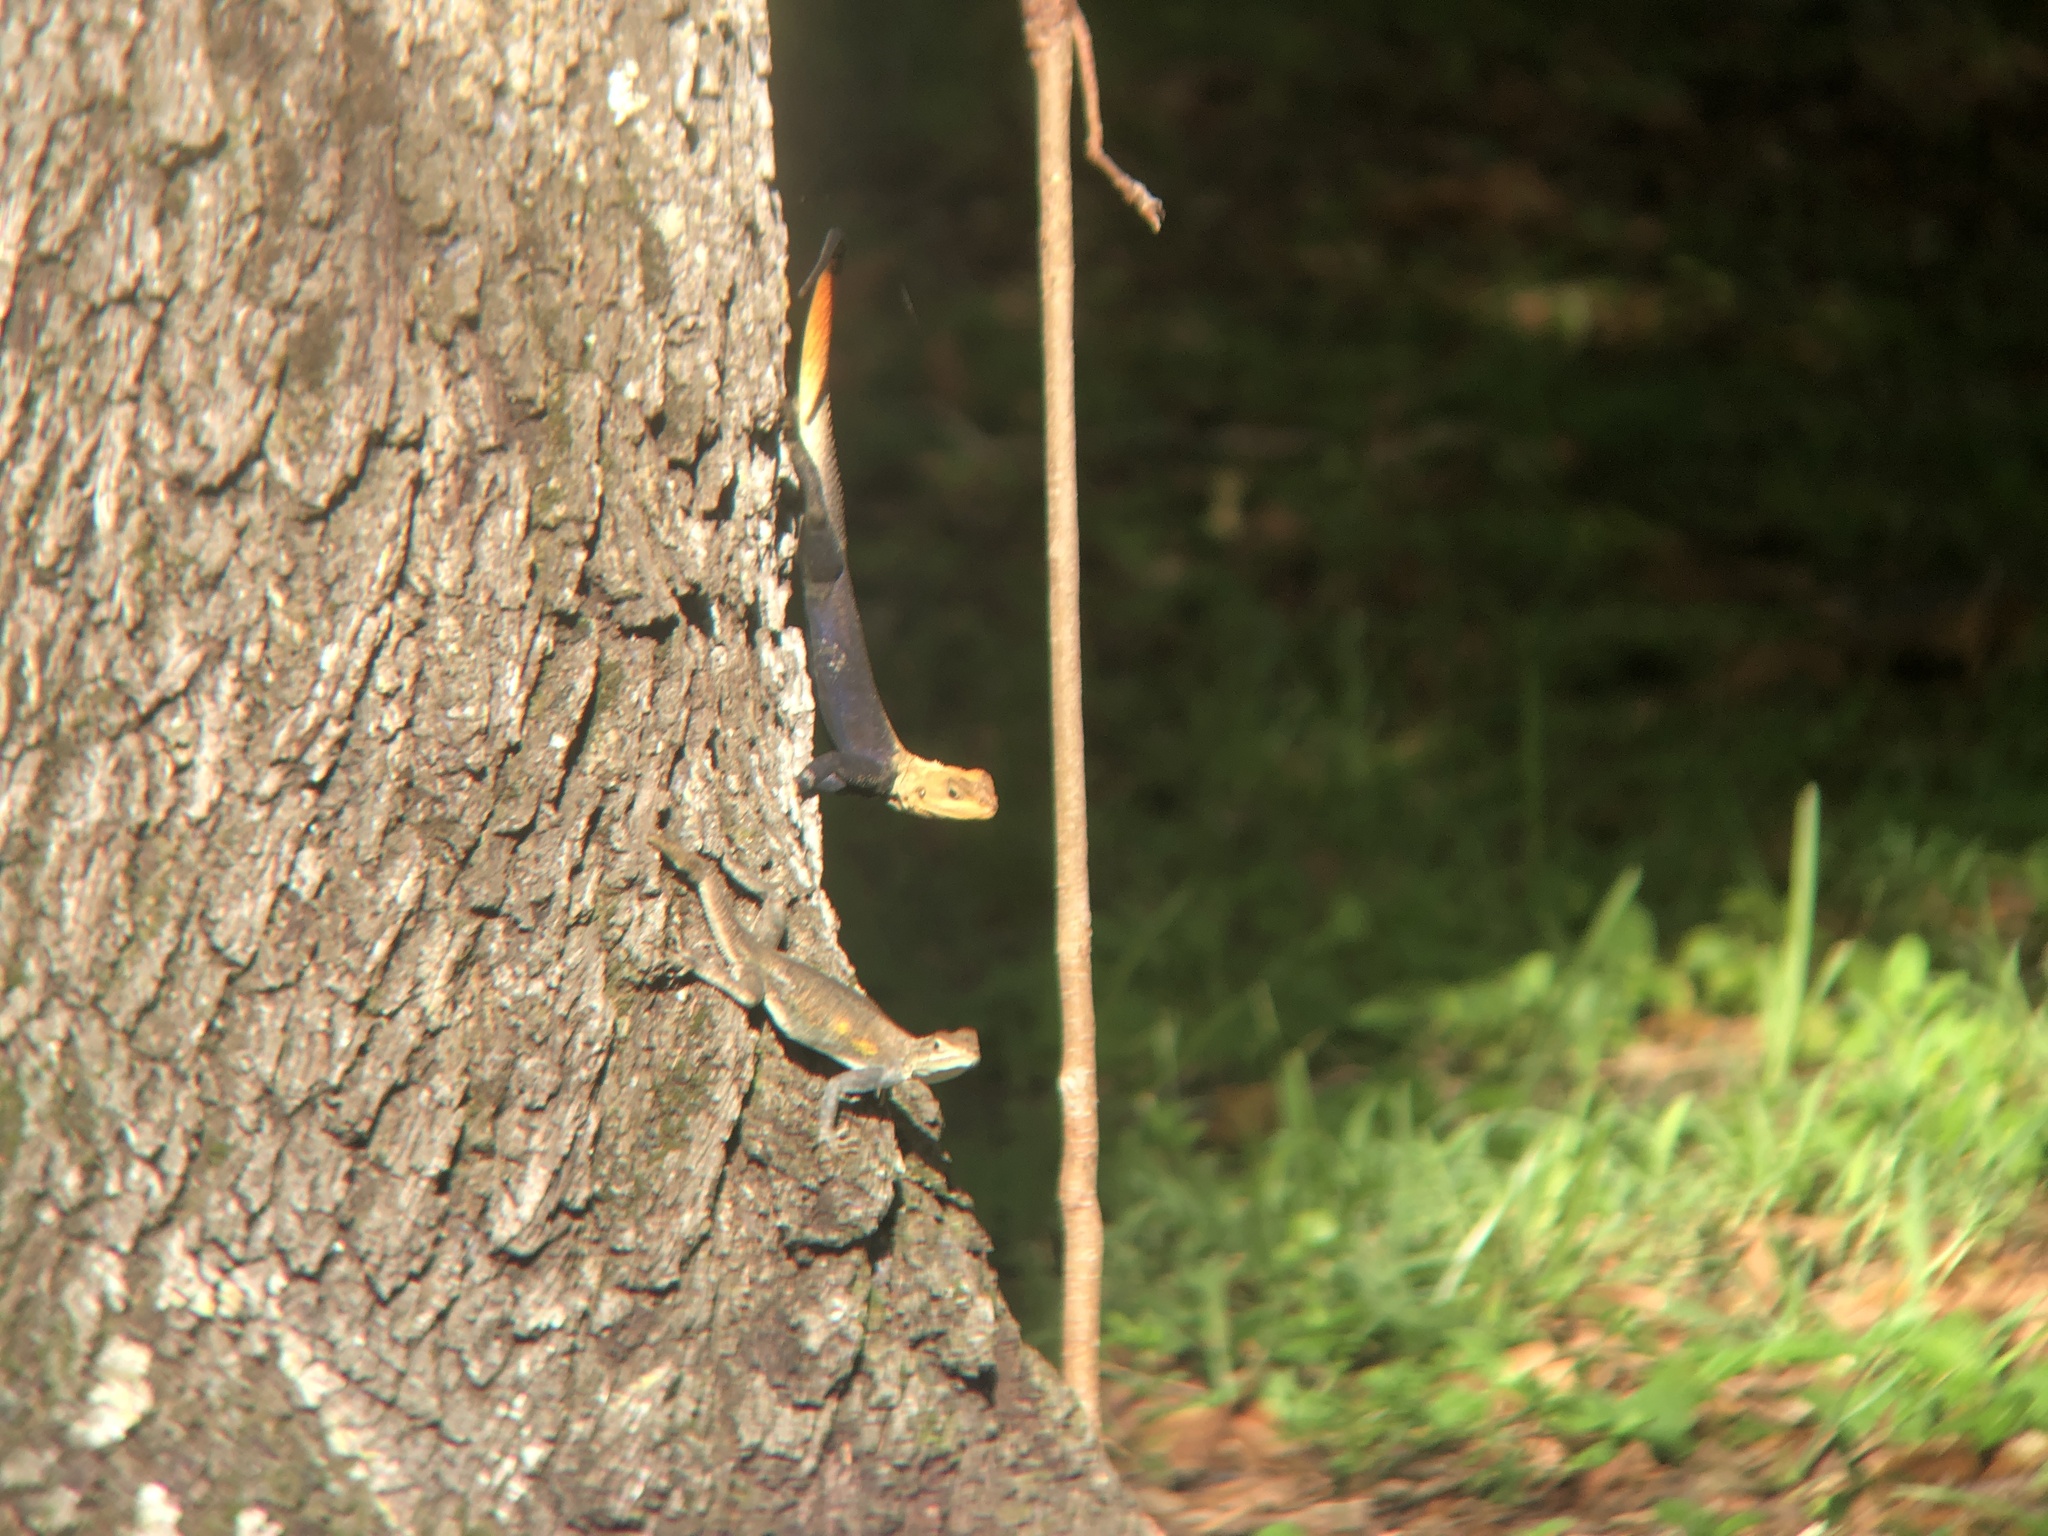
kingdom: Animalia
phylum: Chordata
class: Squamata
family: Agamidae
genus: Agama
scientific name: Agama picticauda
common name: Red-headed agama
